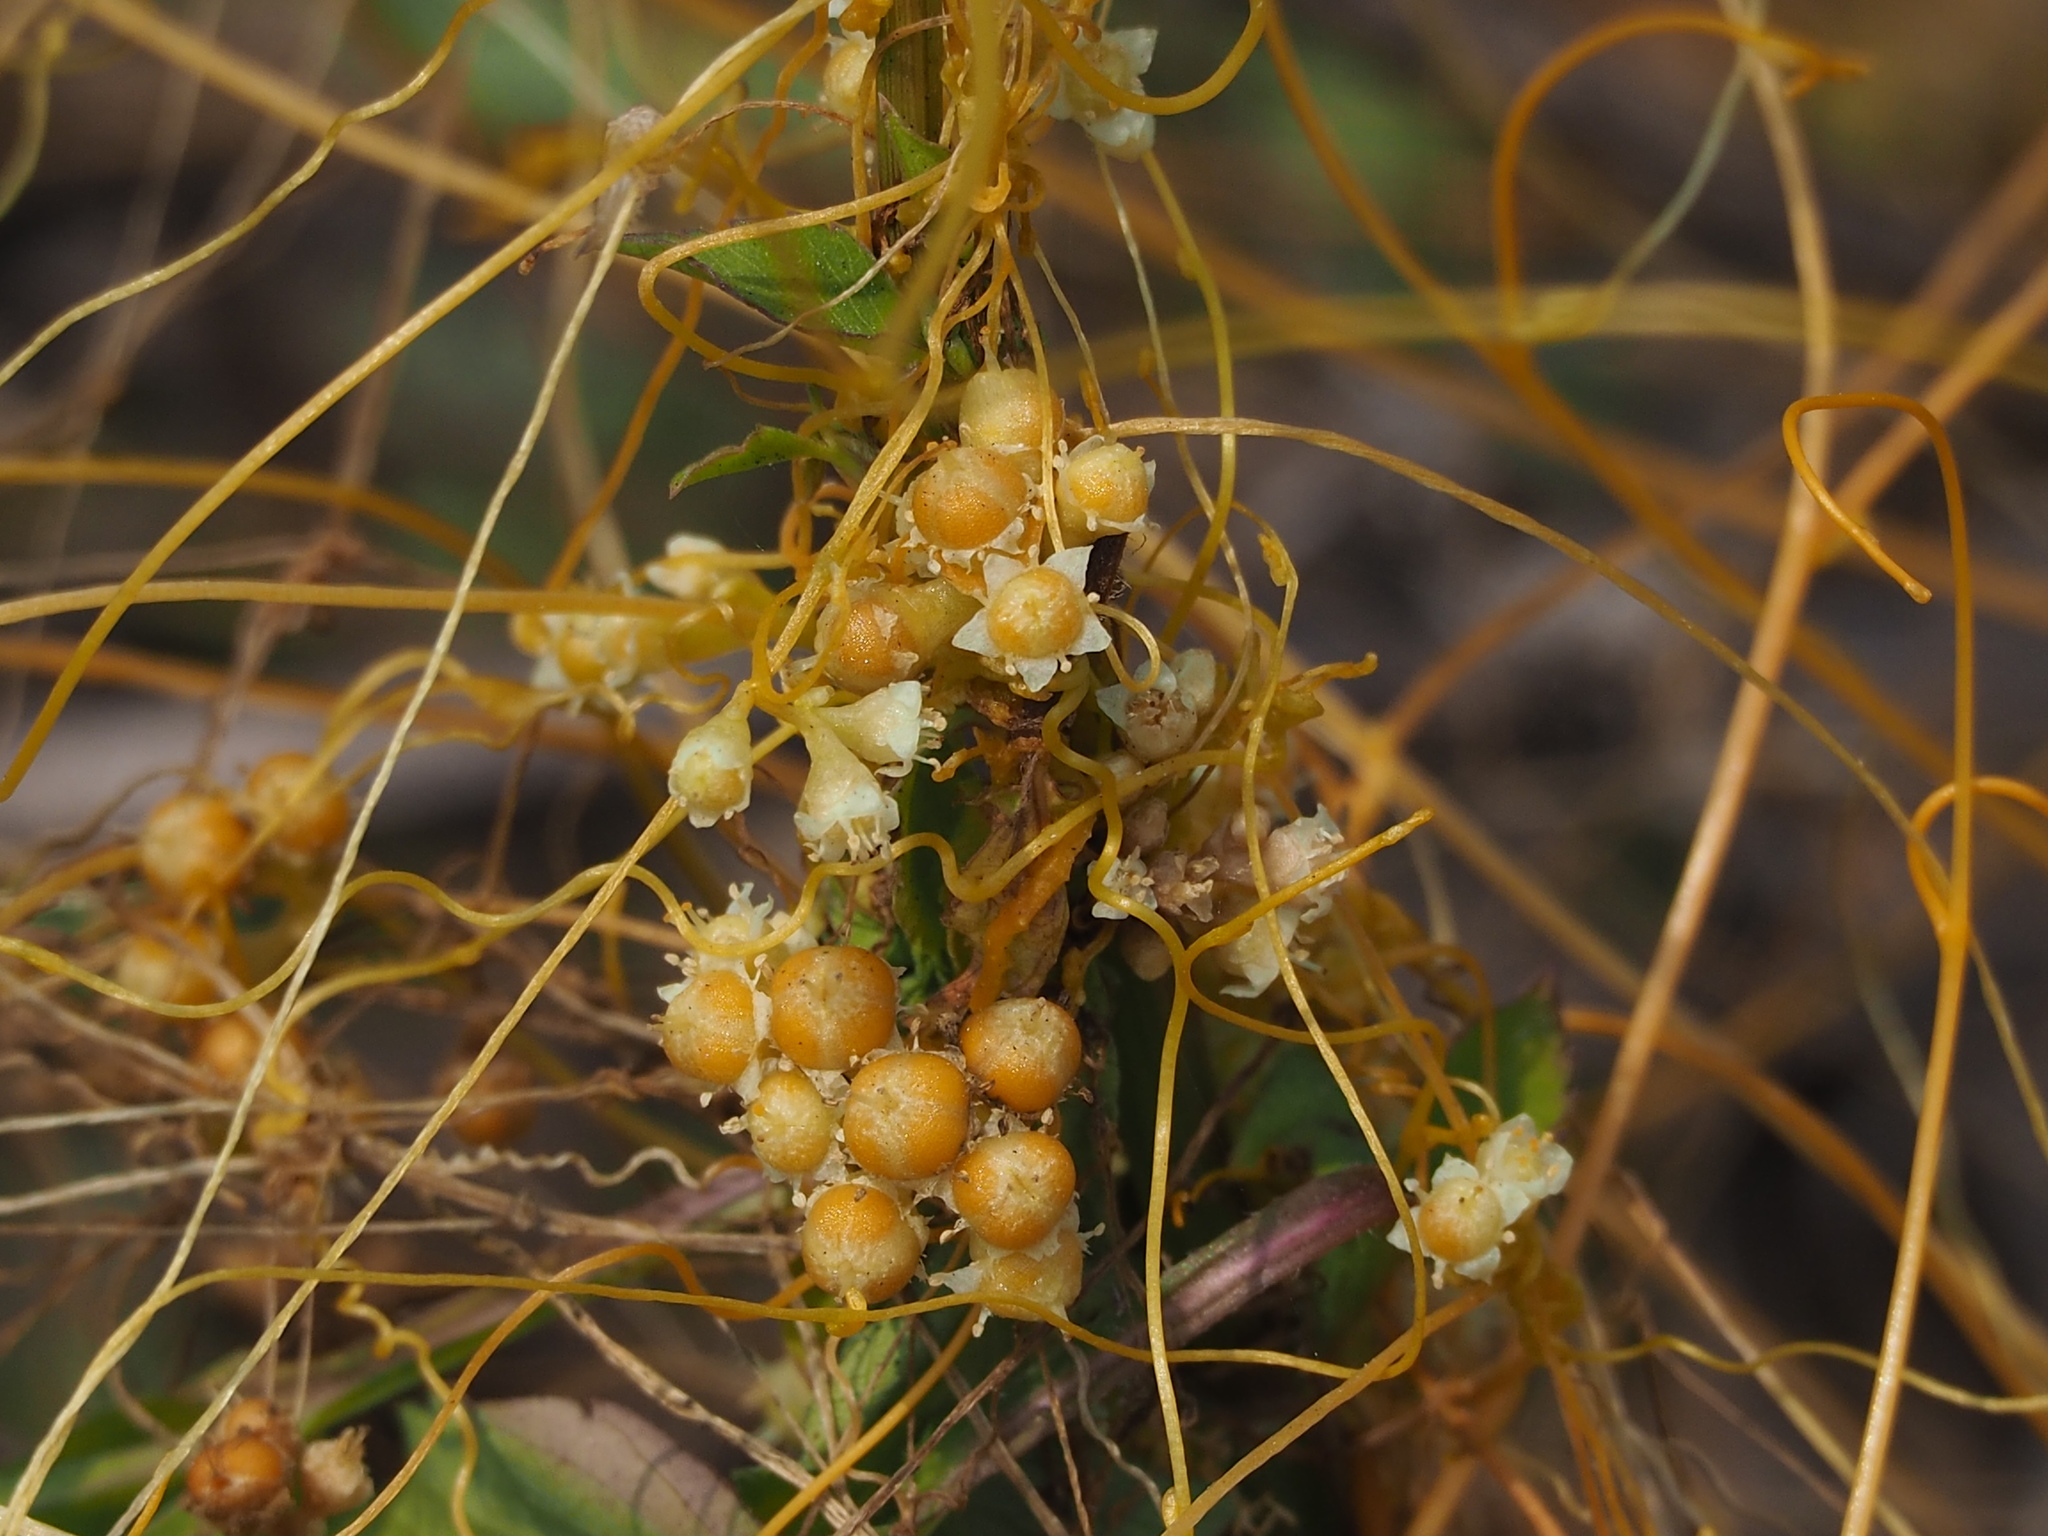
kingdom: Plantae
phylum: Tracheophyta
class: Magnoliopsida
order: Solanales
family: Convolvulaceae
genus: Cuscuta
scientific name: Cuscuta campestris
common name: Yellow dodder
